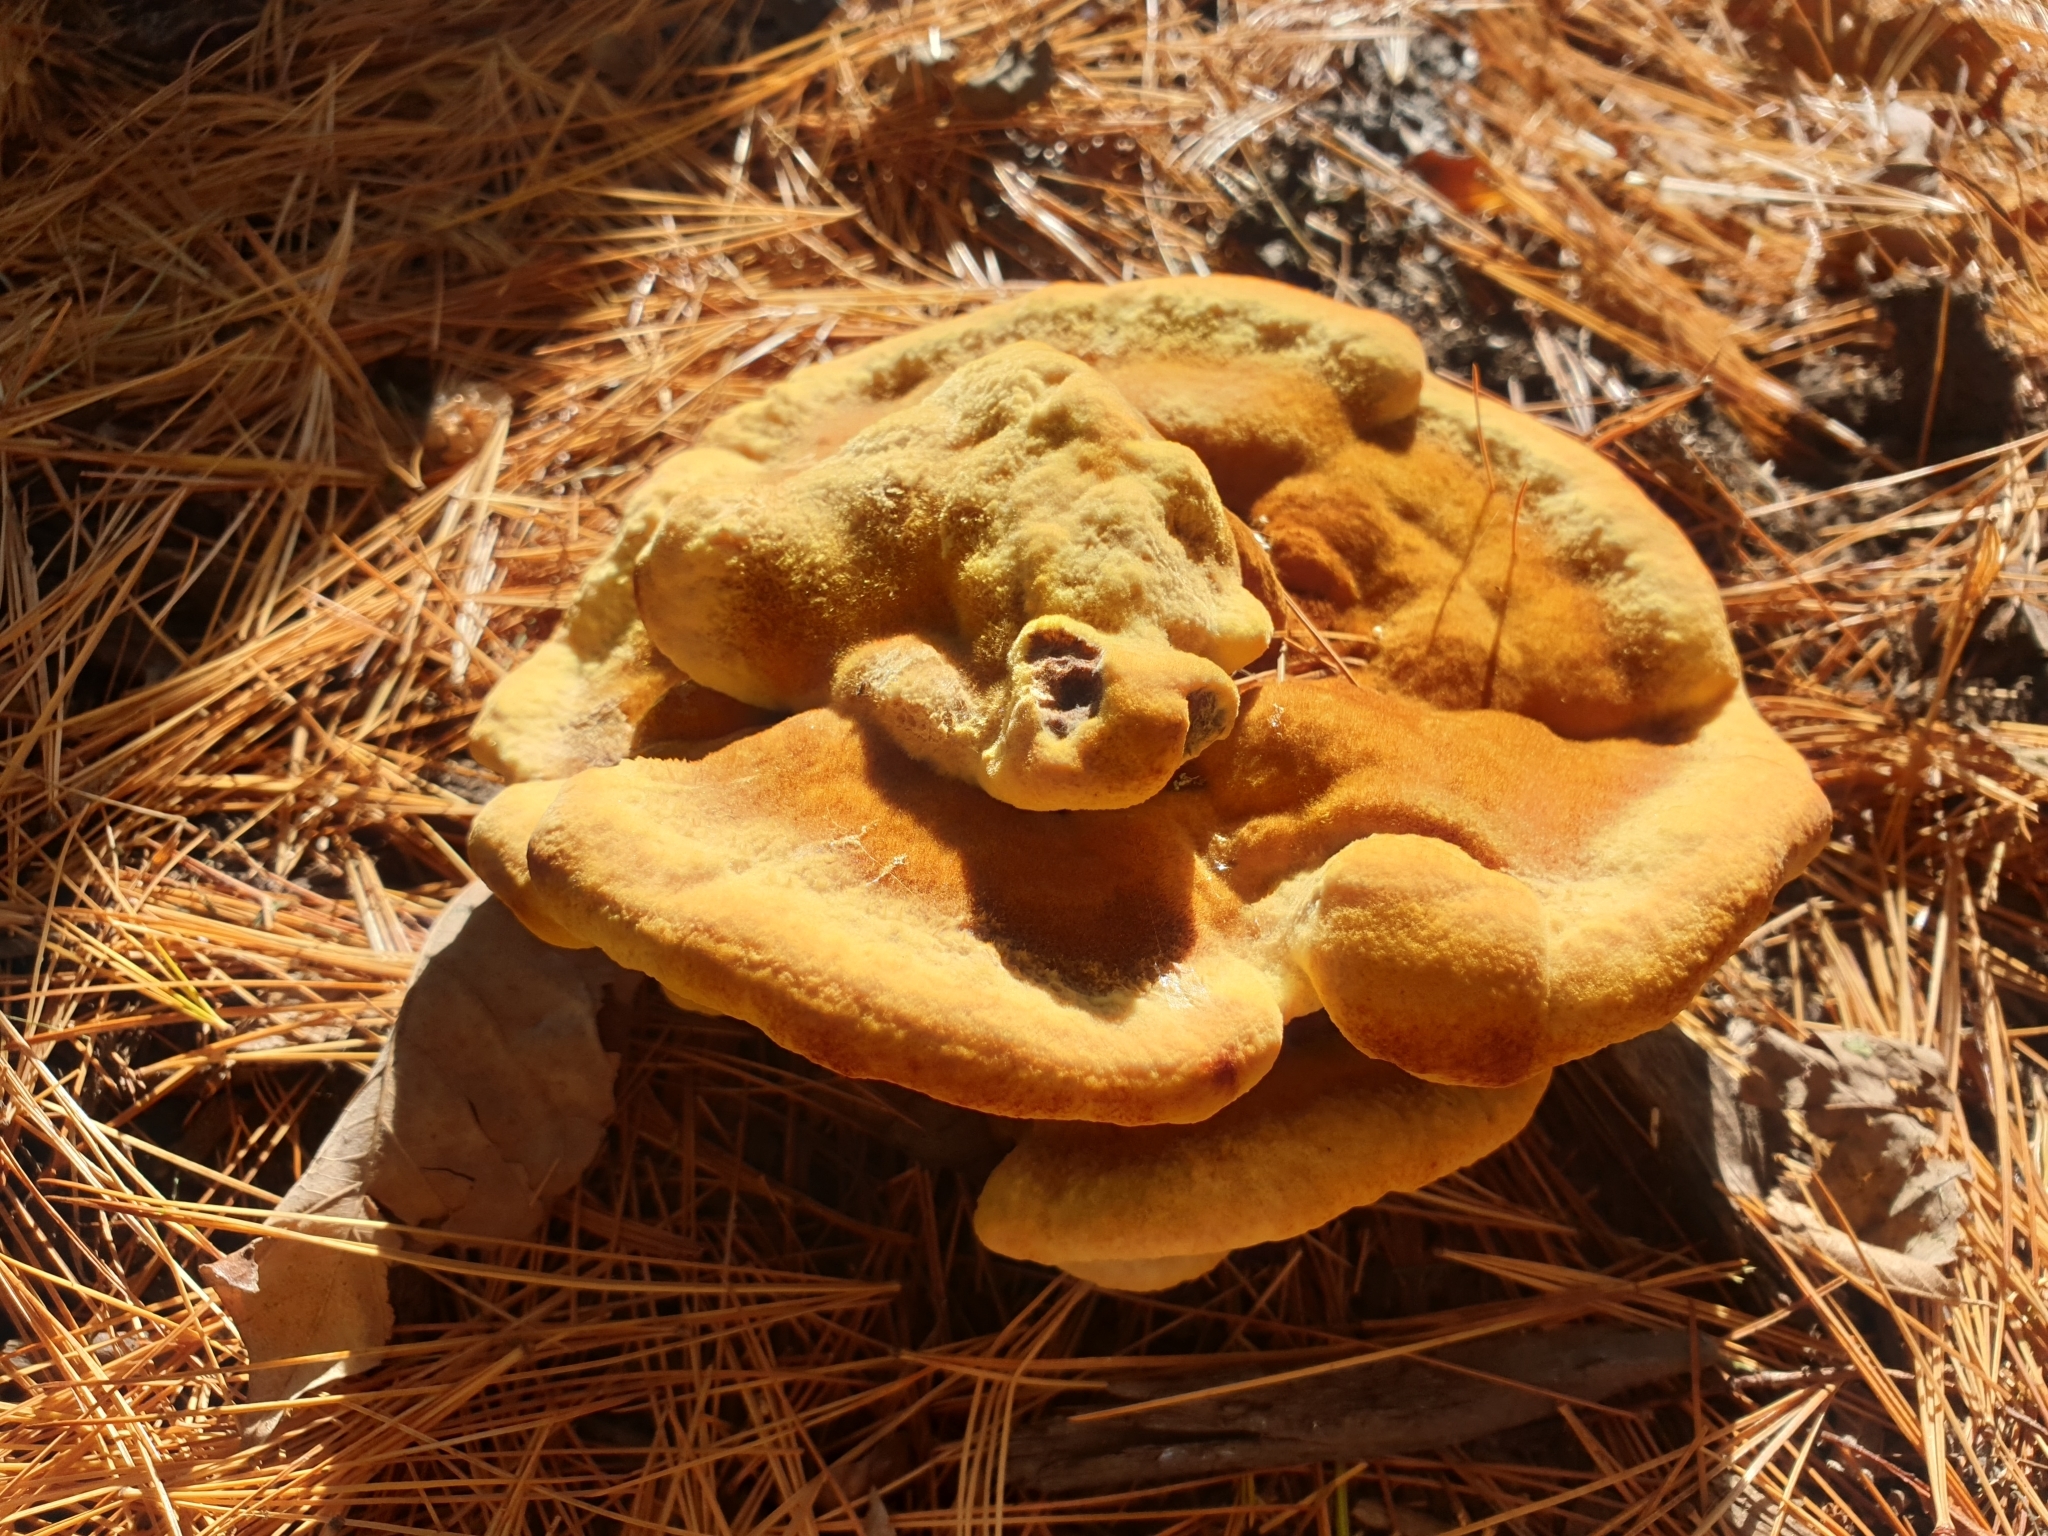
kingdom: Fungi
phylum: Basidiomycota
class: Agaricomycetes
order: Polyporales
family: Laetiporaceae
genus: Phaeolus
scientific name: Phaeolus schweinitzii
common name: Dyer's mazegill
